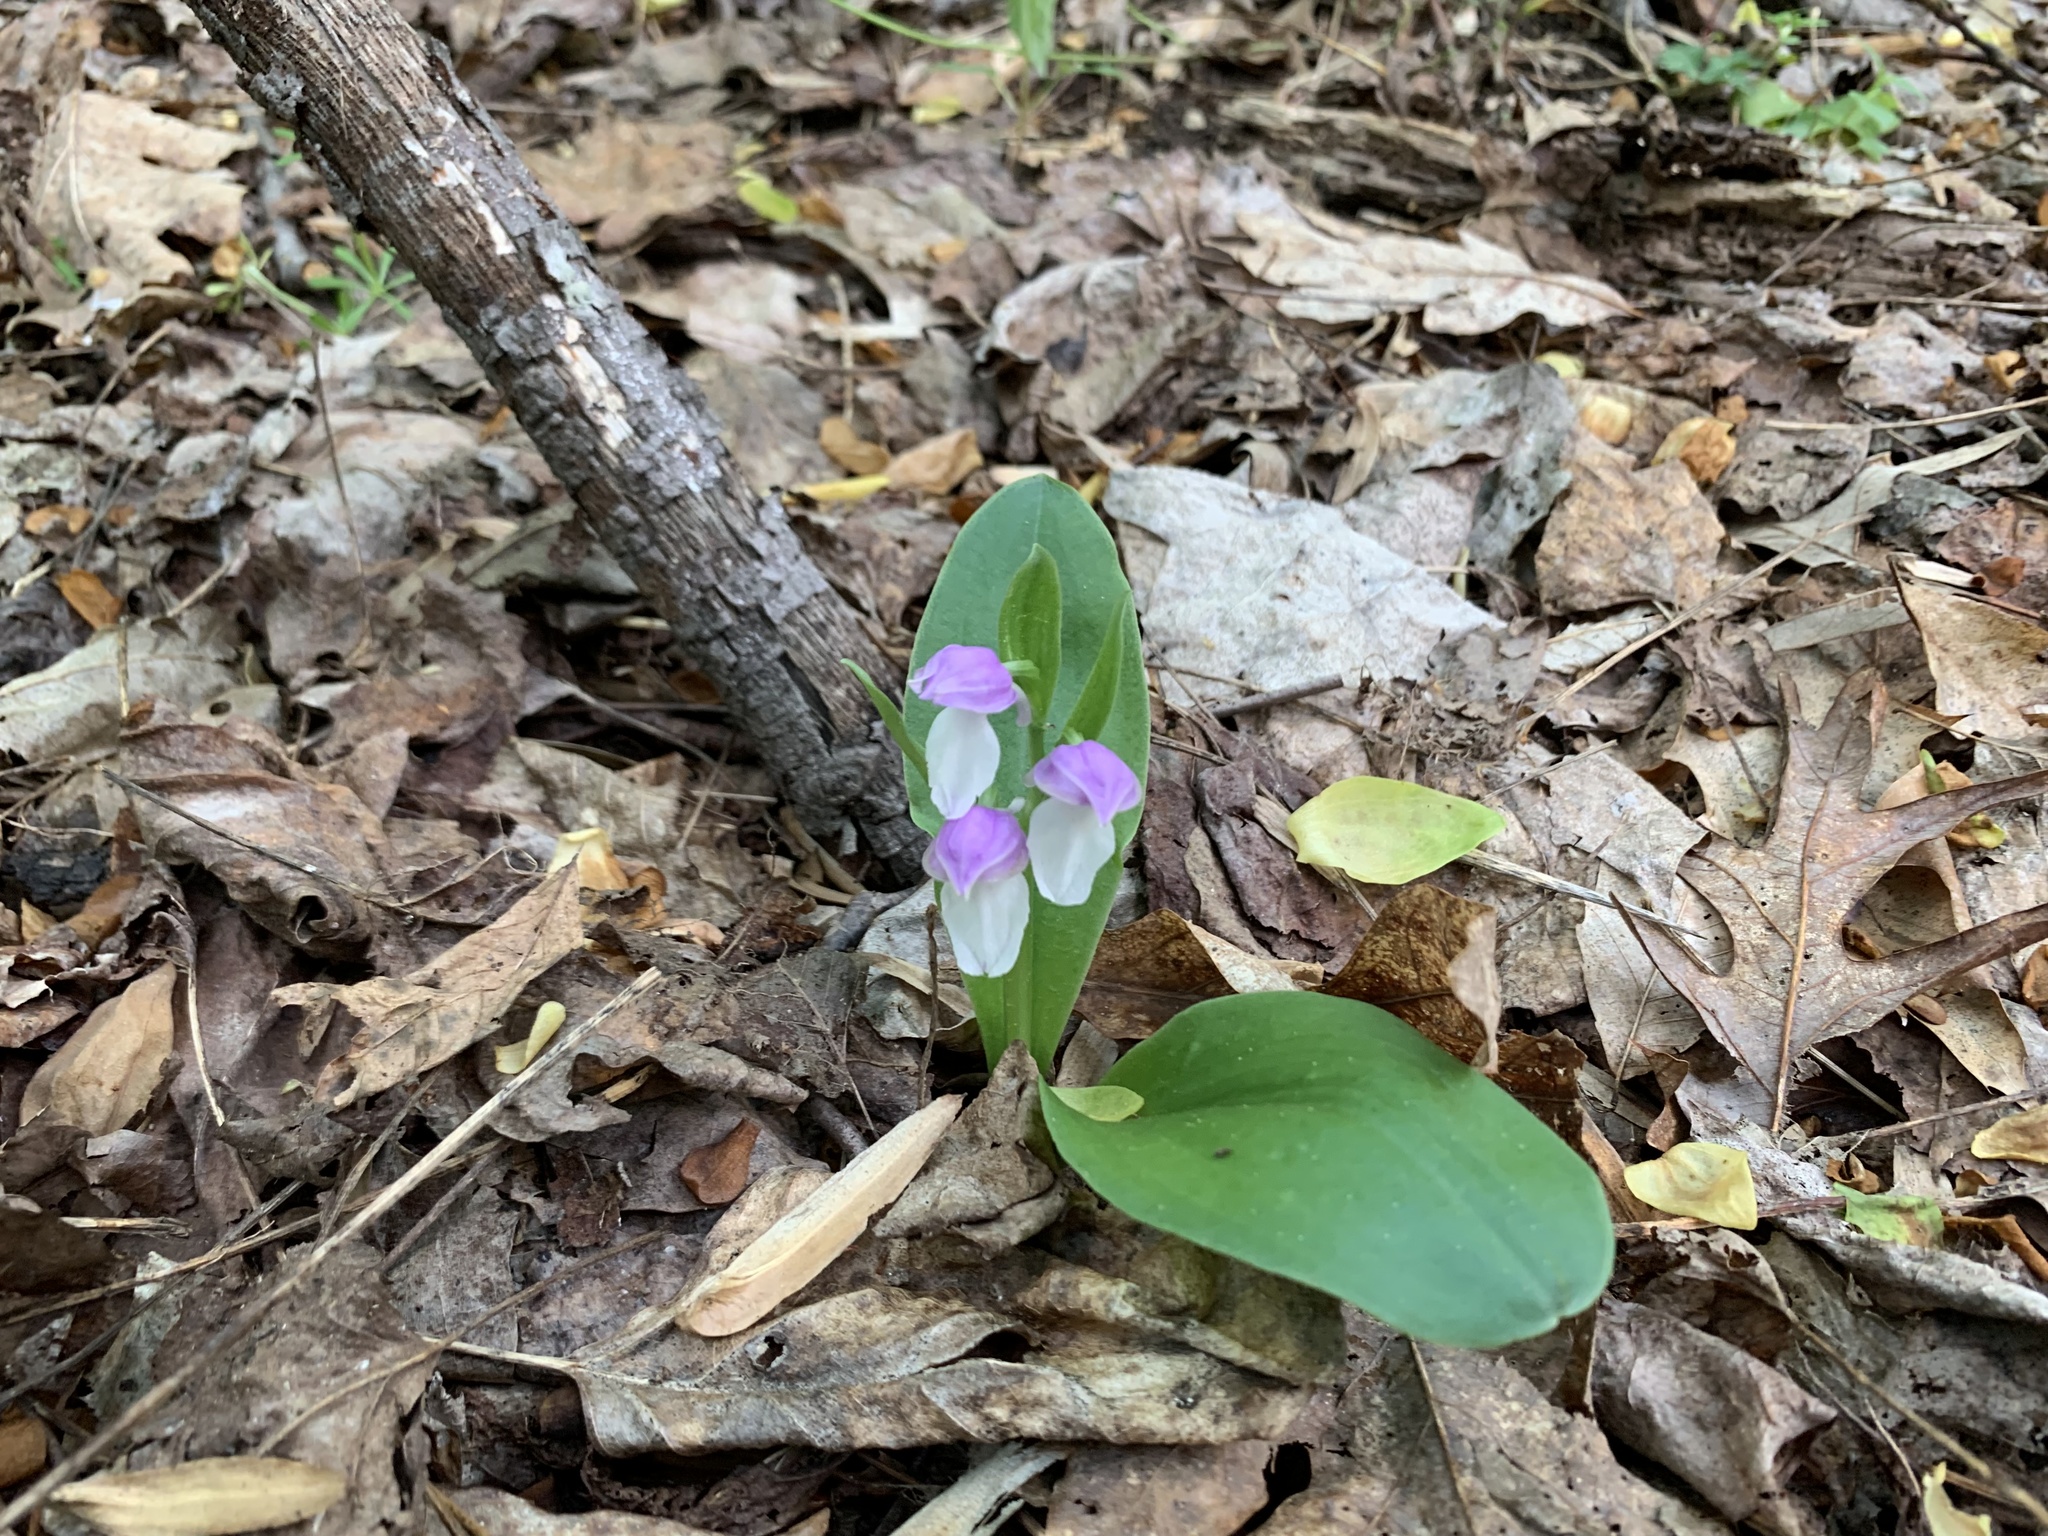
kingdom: Plantae
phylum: Tracheophyta
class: Liliopsida
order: Asparagales
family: Orchidaceae
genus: Galearis
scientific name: Galearis spectabilis
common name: Purple-hooded orchis
